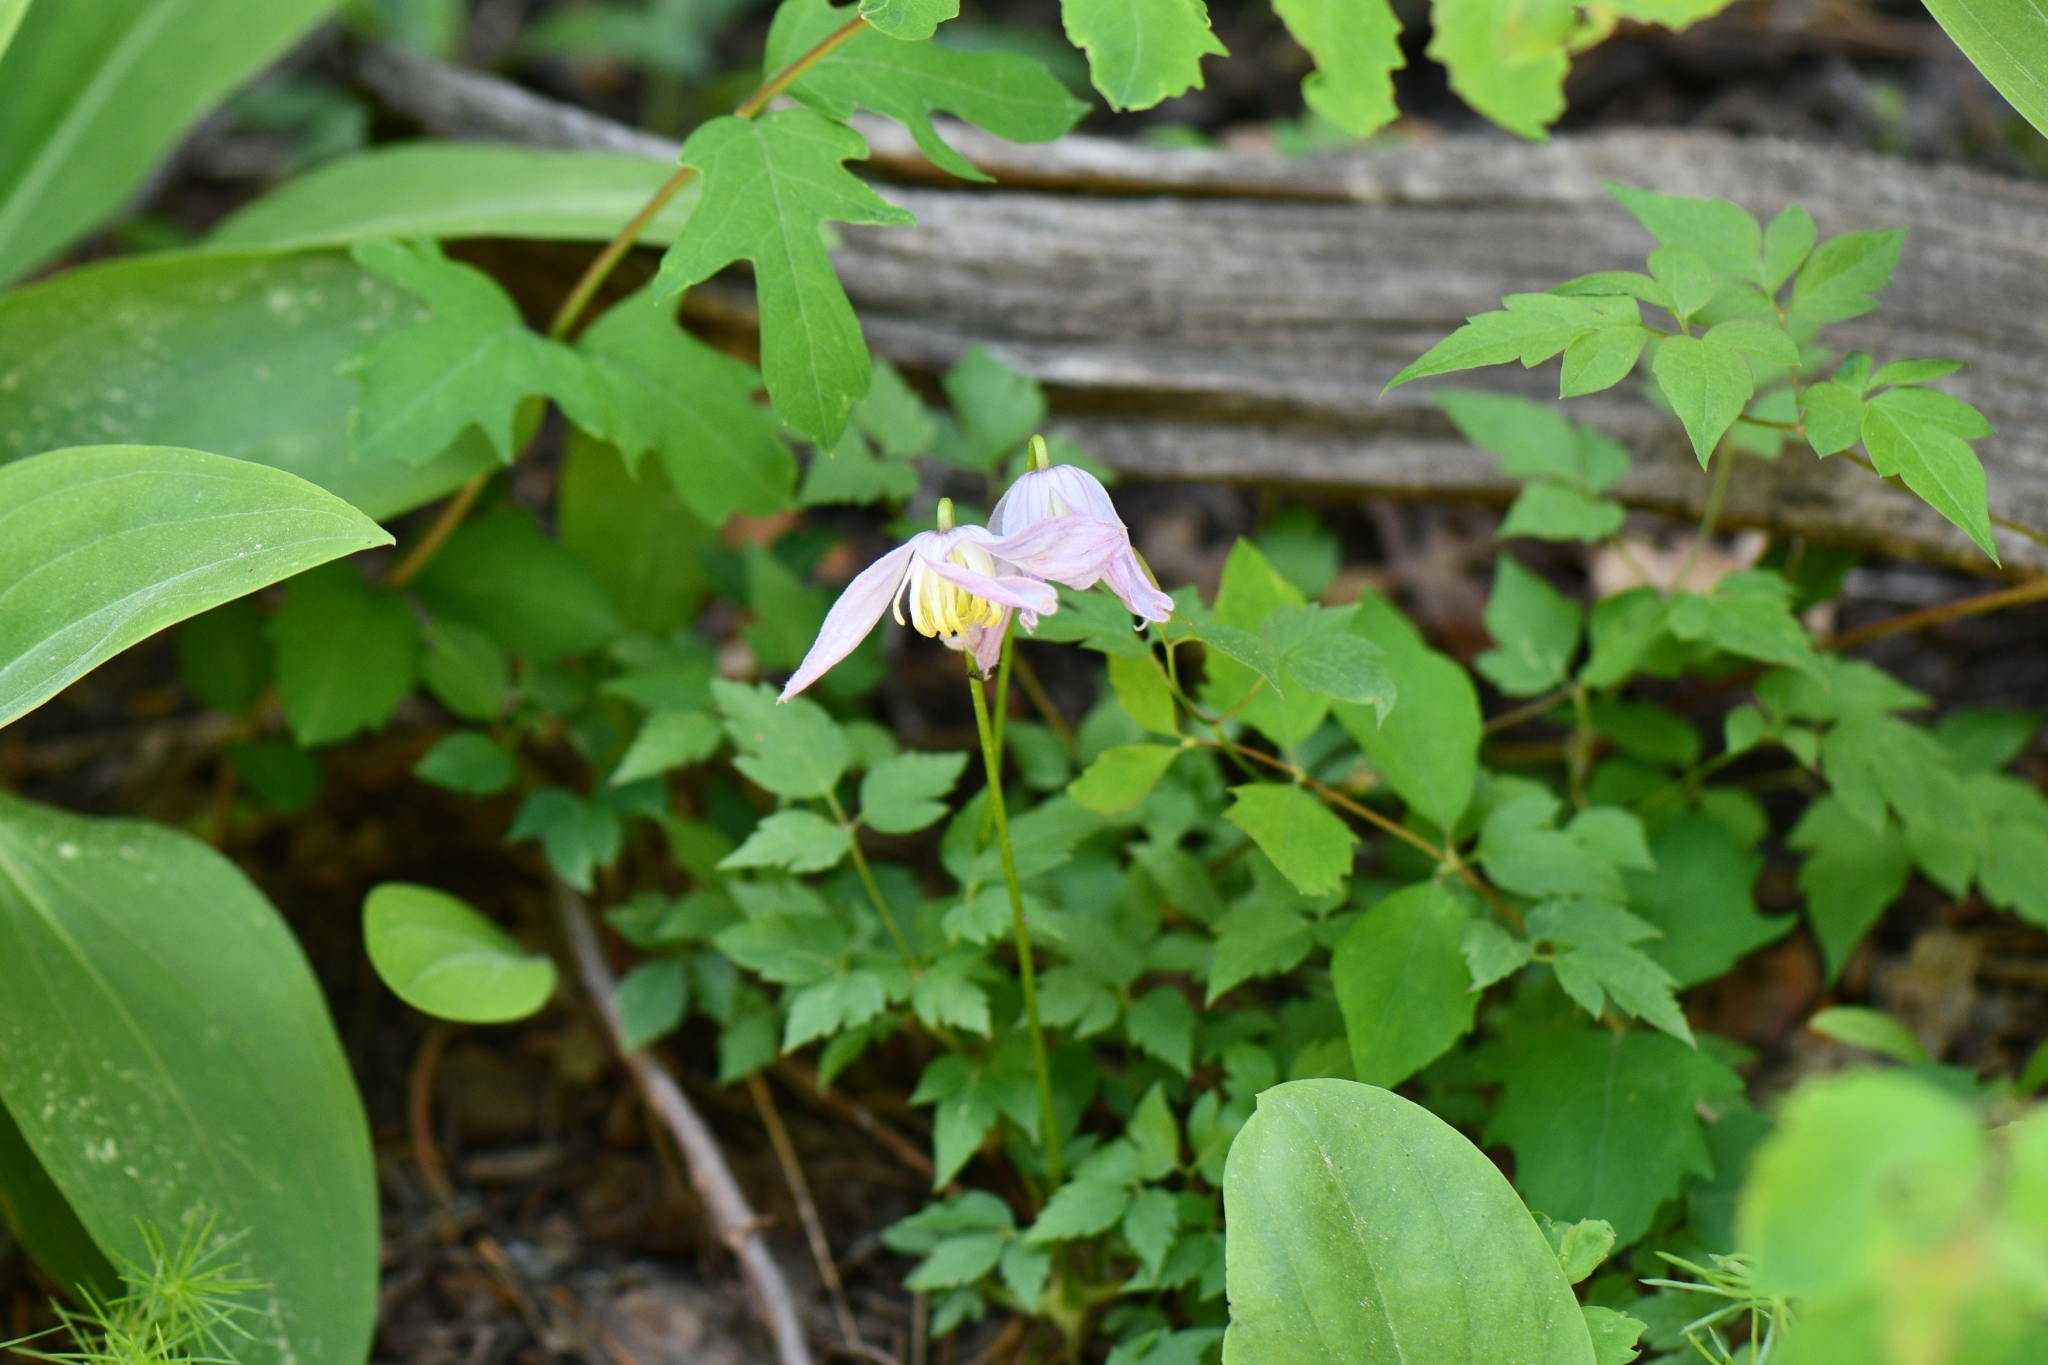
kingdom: Plantae
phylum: Tracheophyta
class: Magnoliopsida
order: Ranunculales
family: Ranunculaceae
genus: Clematis
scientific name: Clematis columbiana
